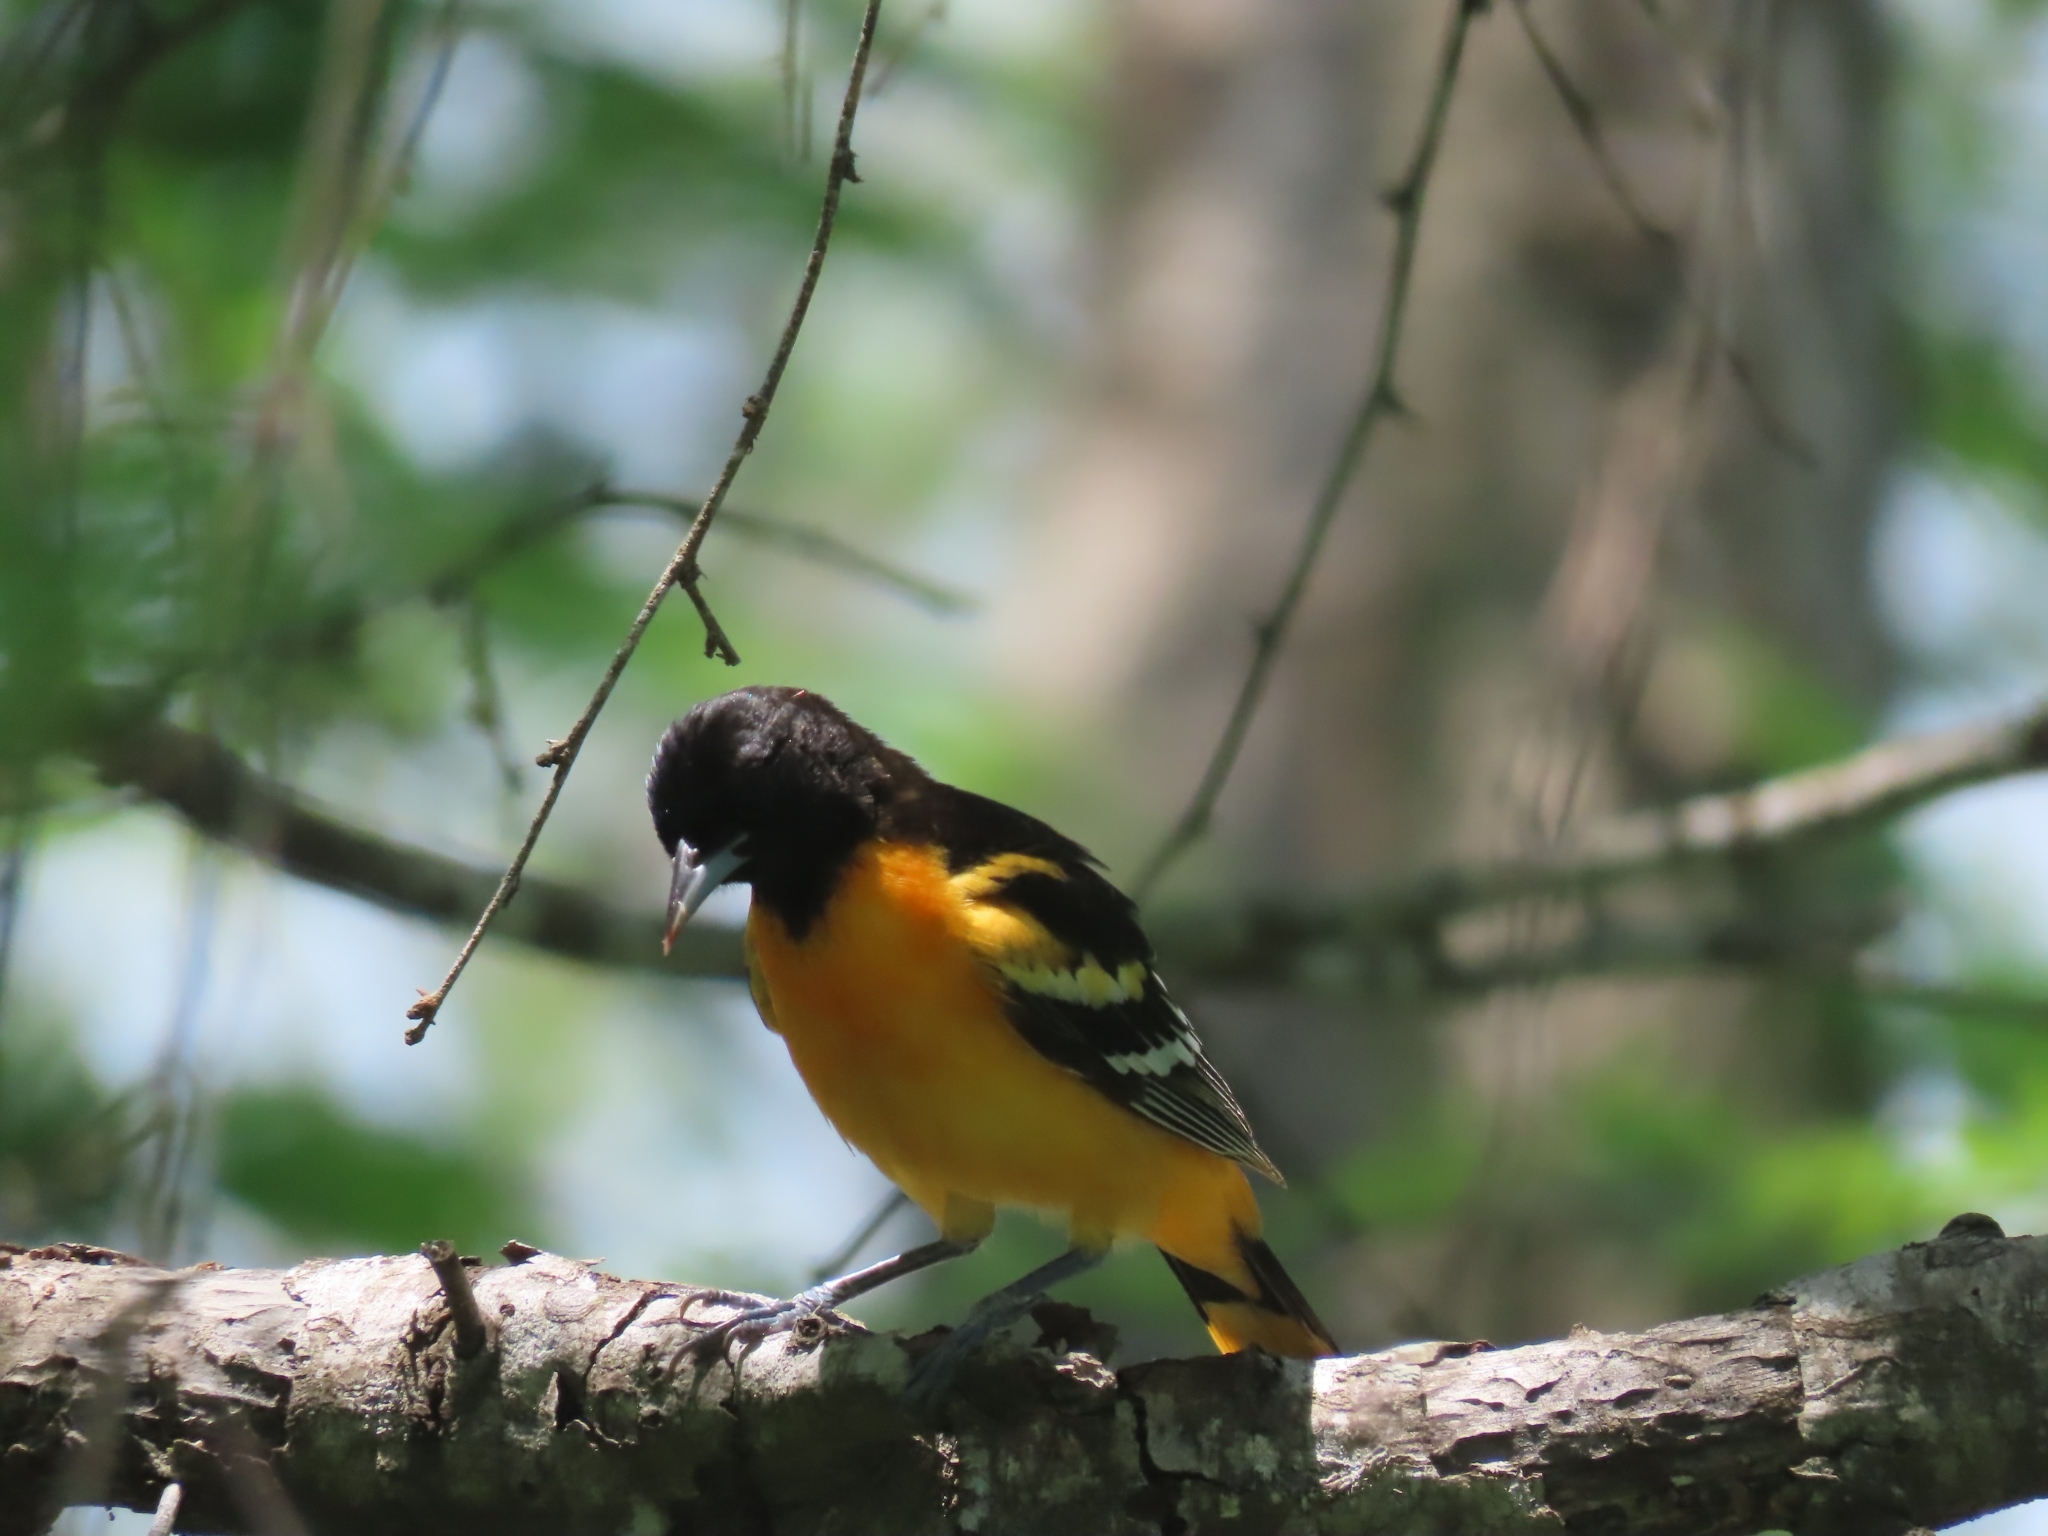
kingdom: Animalia
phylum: Chordata
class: Aves
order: Passeriformes
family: Icteridae
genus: Icterus
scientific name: Icterus galbula
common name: Baltimore oriole
